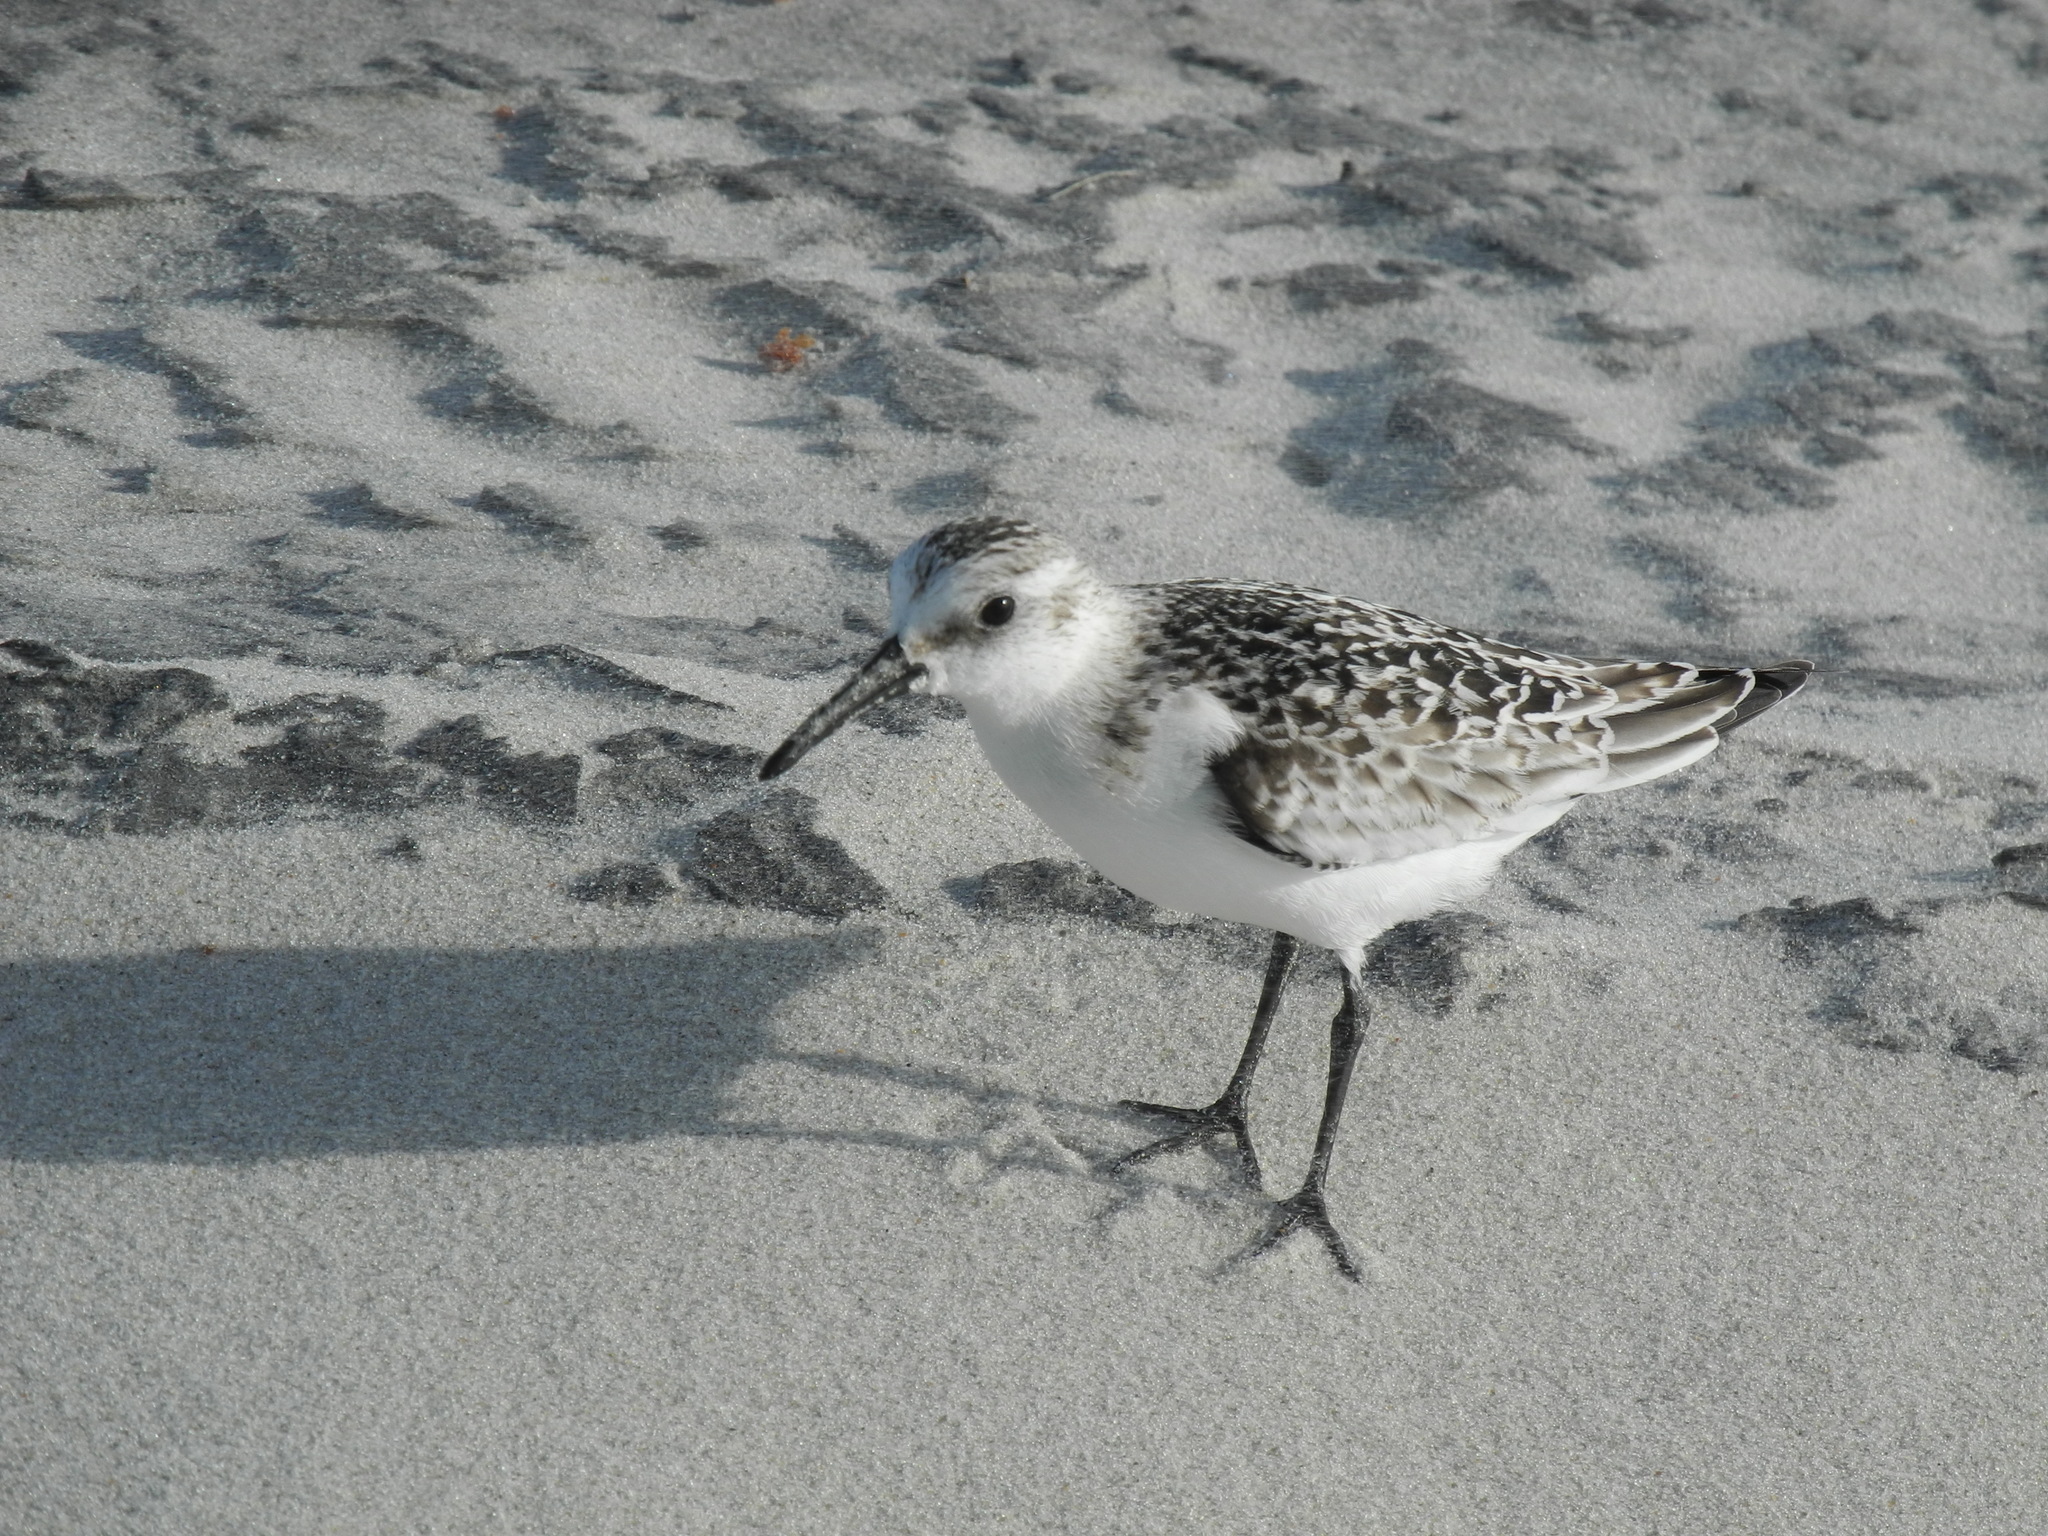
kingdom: Animalia
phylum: Chordata
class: Aves
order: Charadriiformes
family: Scolopacidae
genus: Calidris
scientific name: Calidris alba
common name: Sanderling
